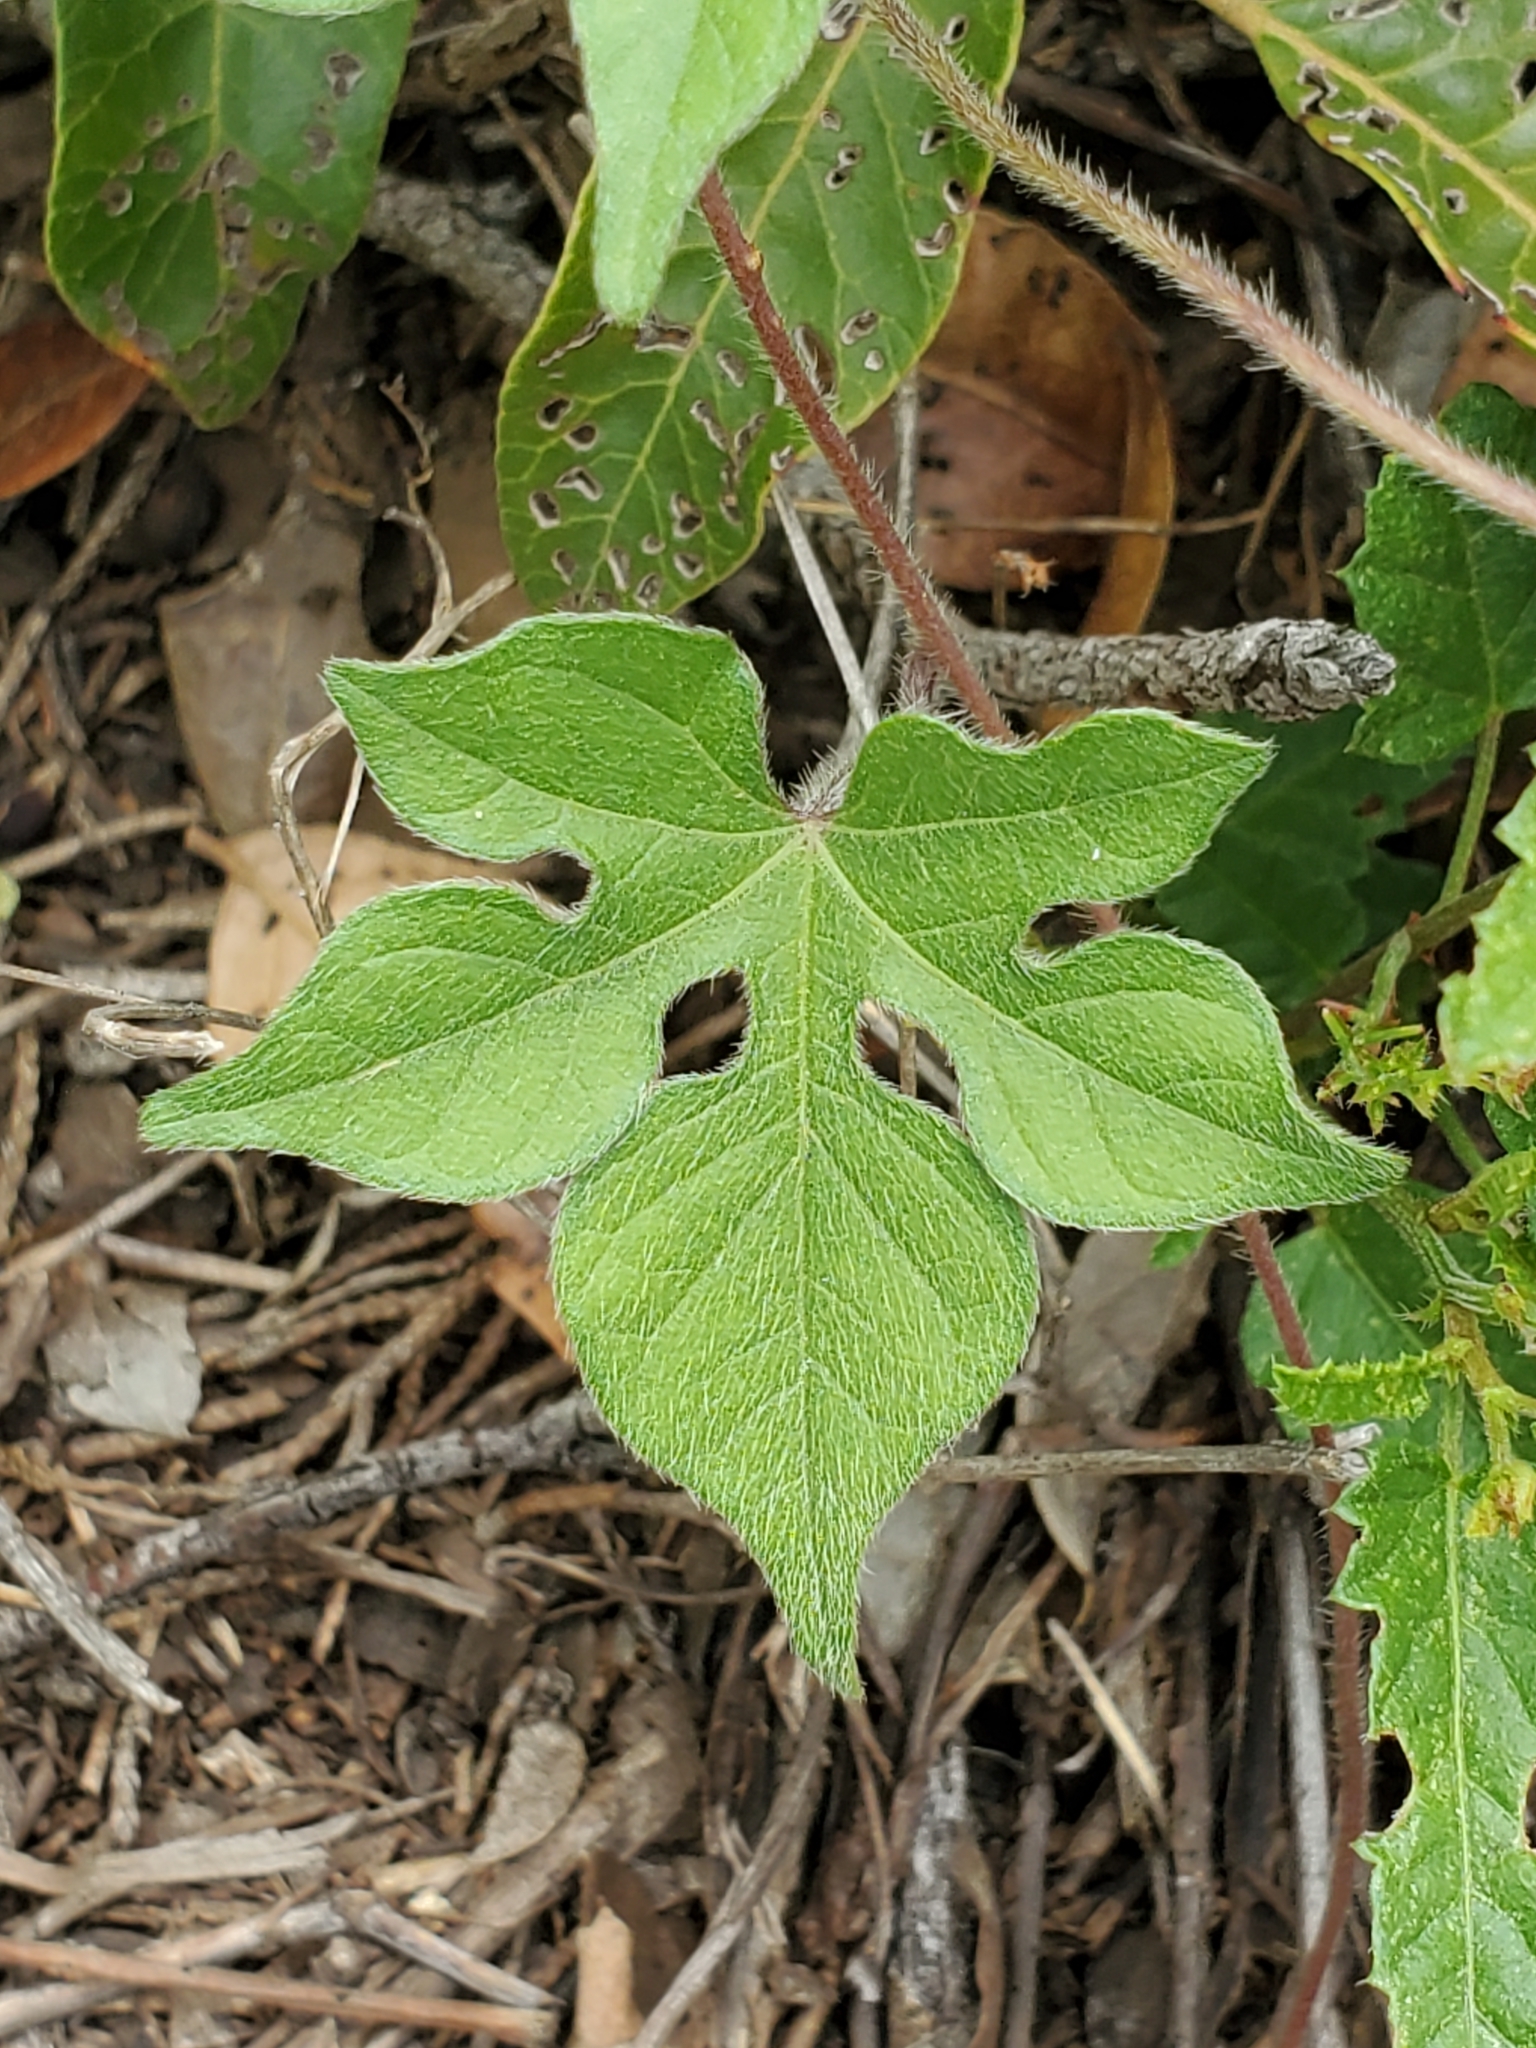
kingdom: Plantae
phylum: Tracheophyta
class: Magnoliopsida
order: Solanales
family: Convolvulaceae
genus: Ipomoea
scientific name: Ipomoea lindheimeri
